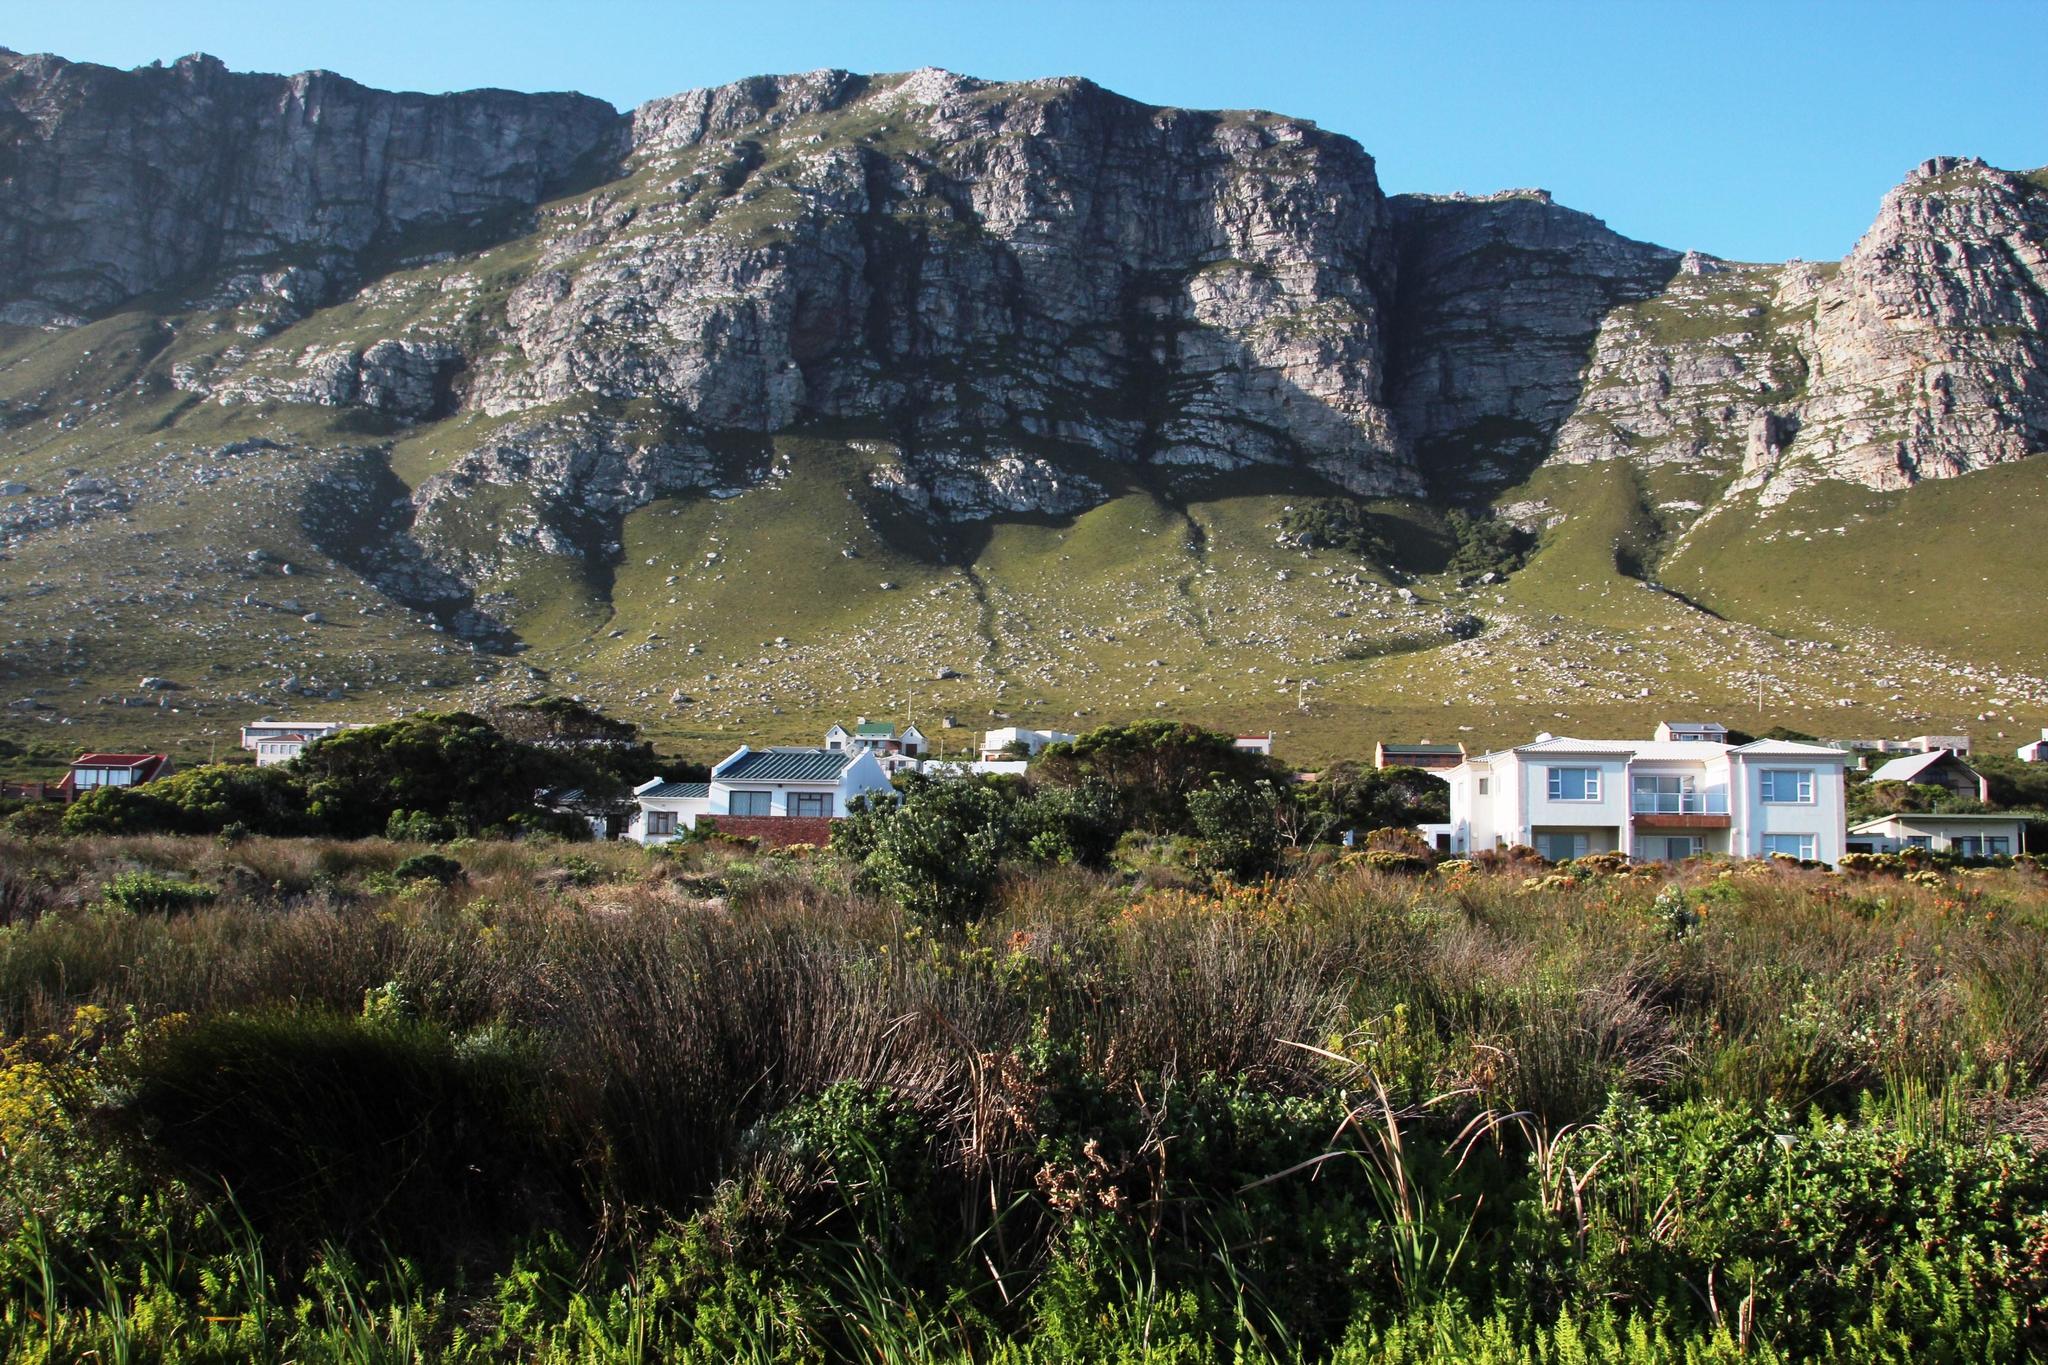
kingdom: Plantae
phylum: Tracheophyta
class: Magnoliopsida
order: Myrtales
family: Myrtaceae
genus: Metrosideros
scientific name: Metrosideros excelsa
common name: New zealand christmastree
